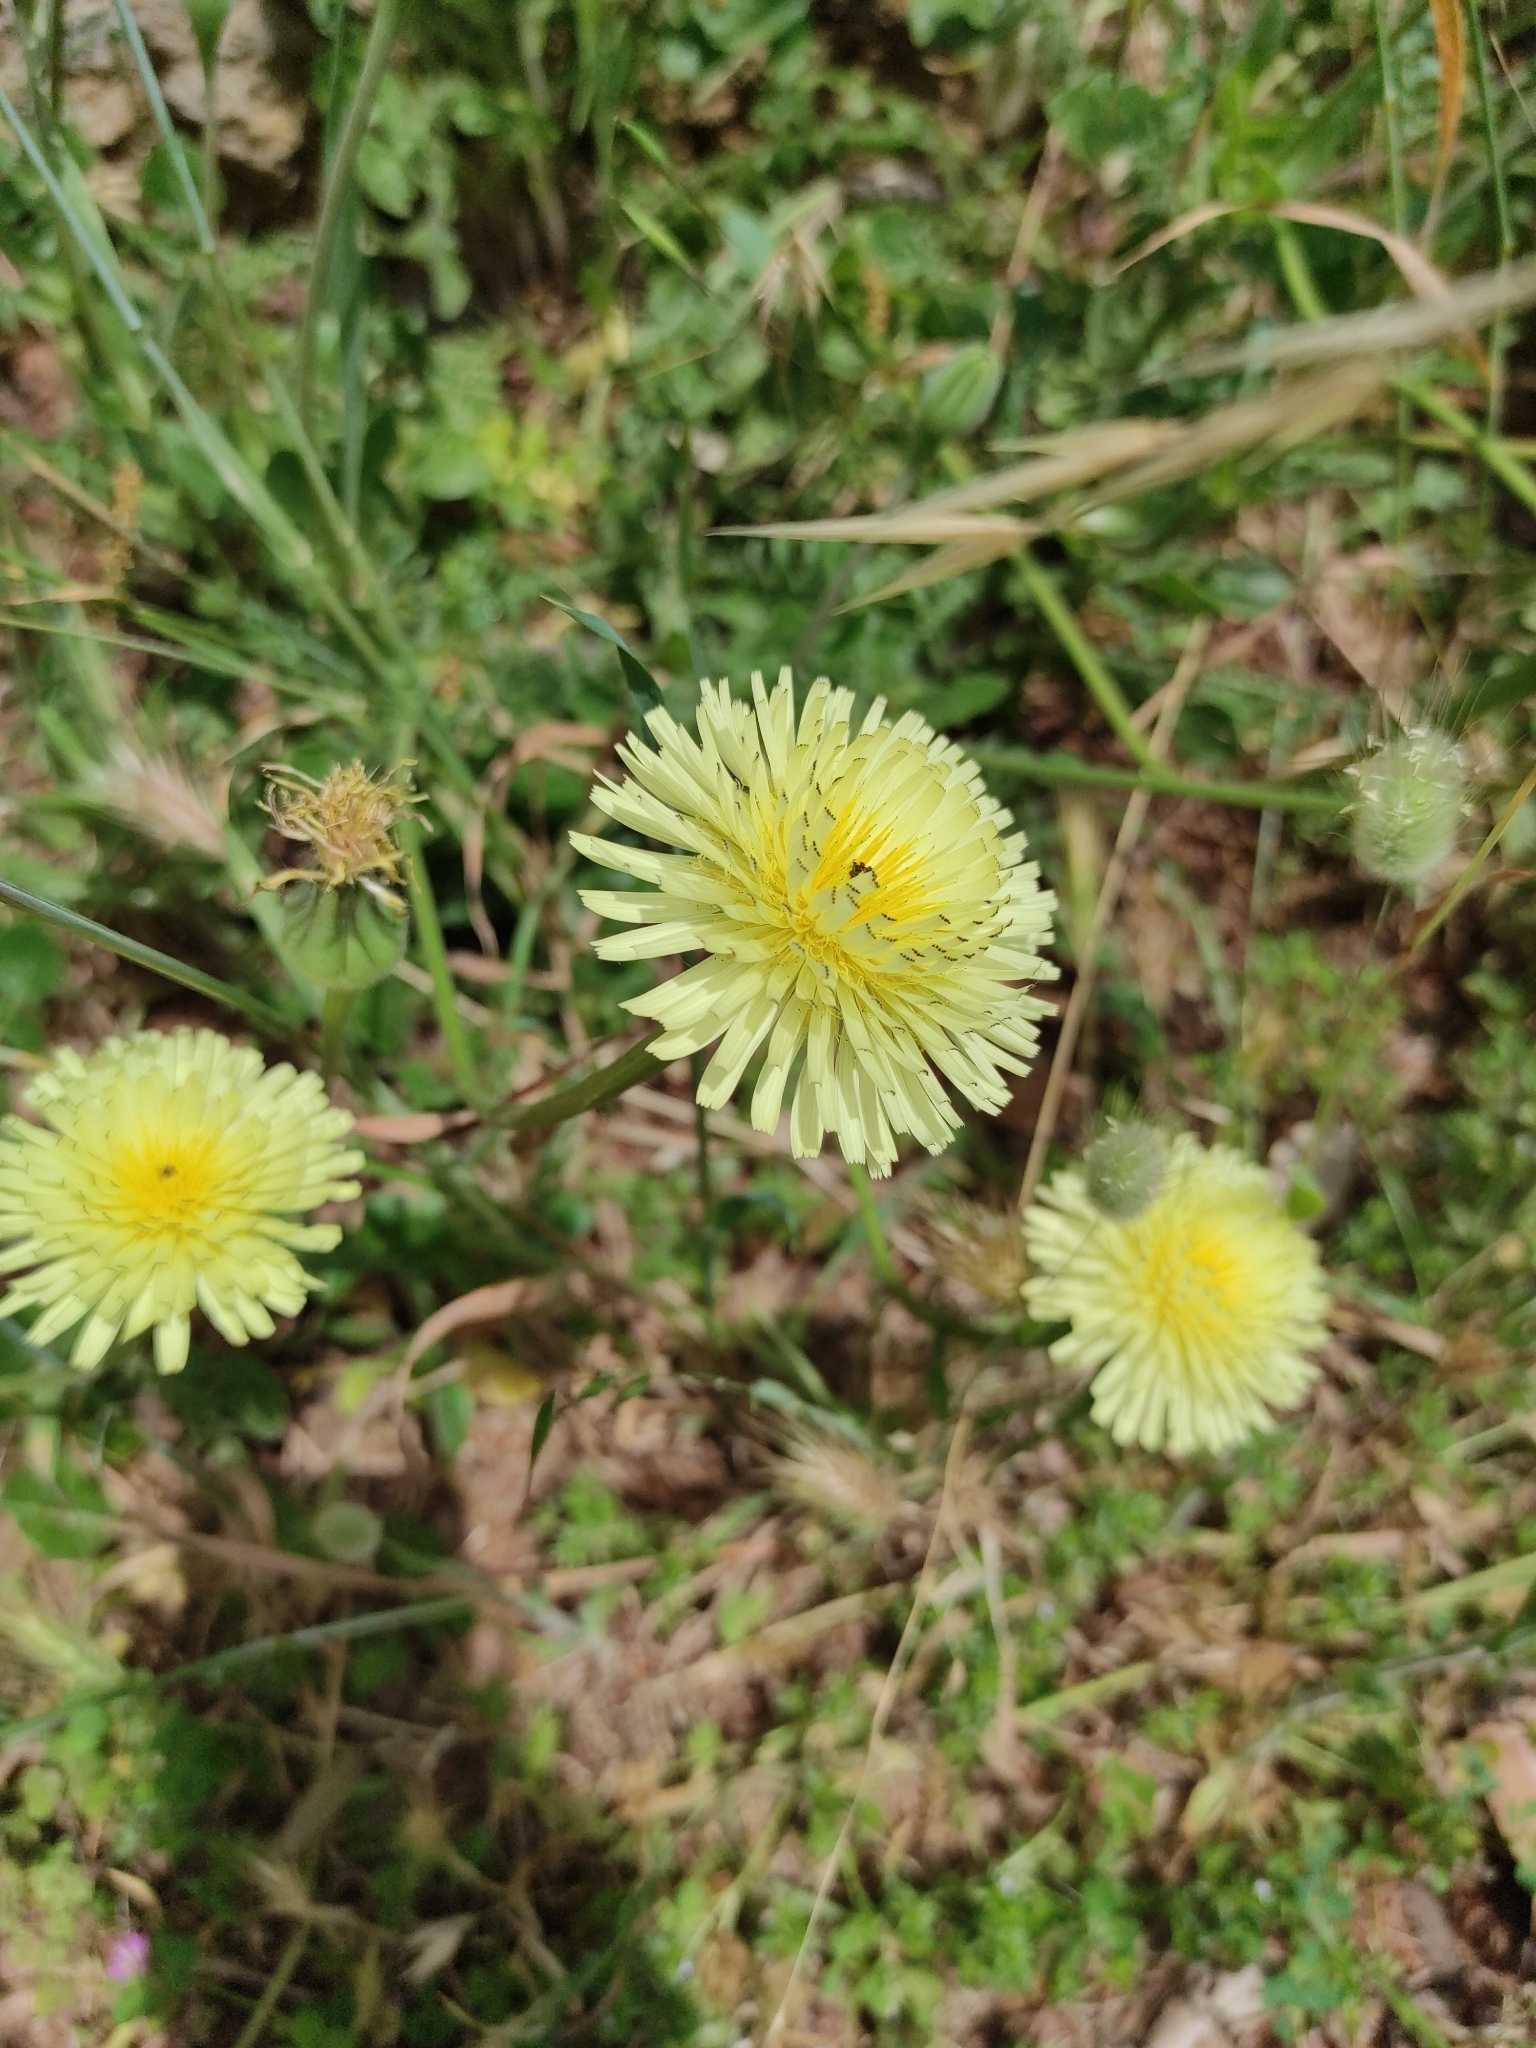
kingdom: Plantae
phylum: Tracheophyta
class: Magnoliopsida
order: Asterales
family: Asteraceae
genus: Urospermum
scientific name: Urospermum dalechampii
